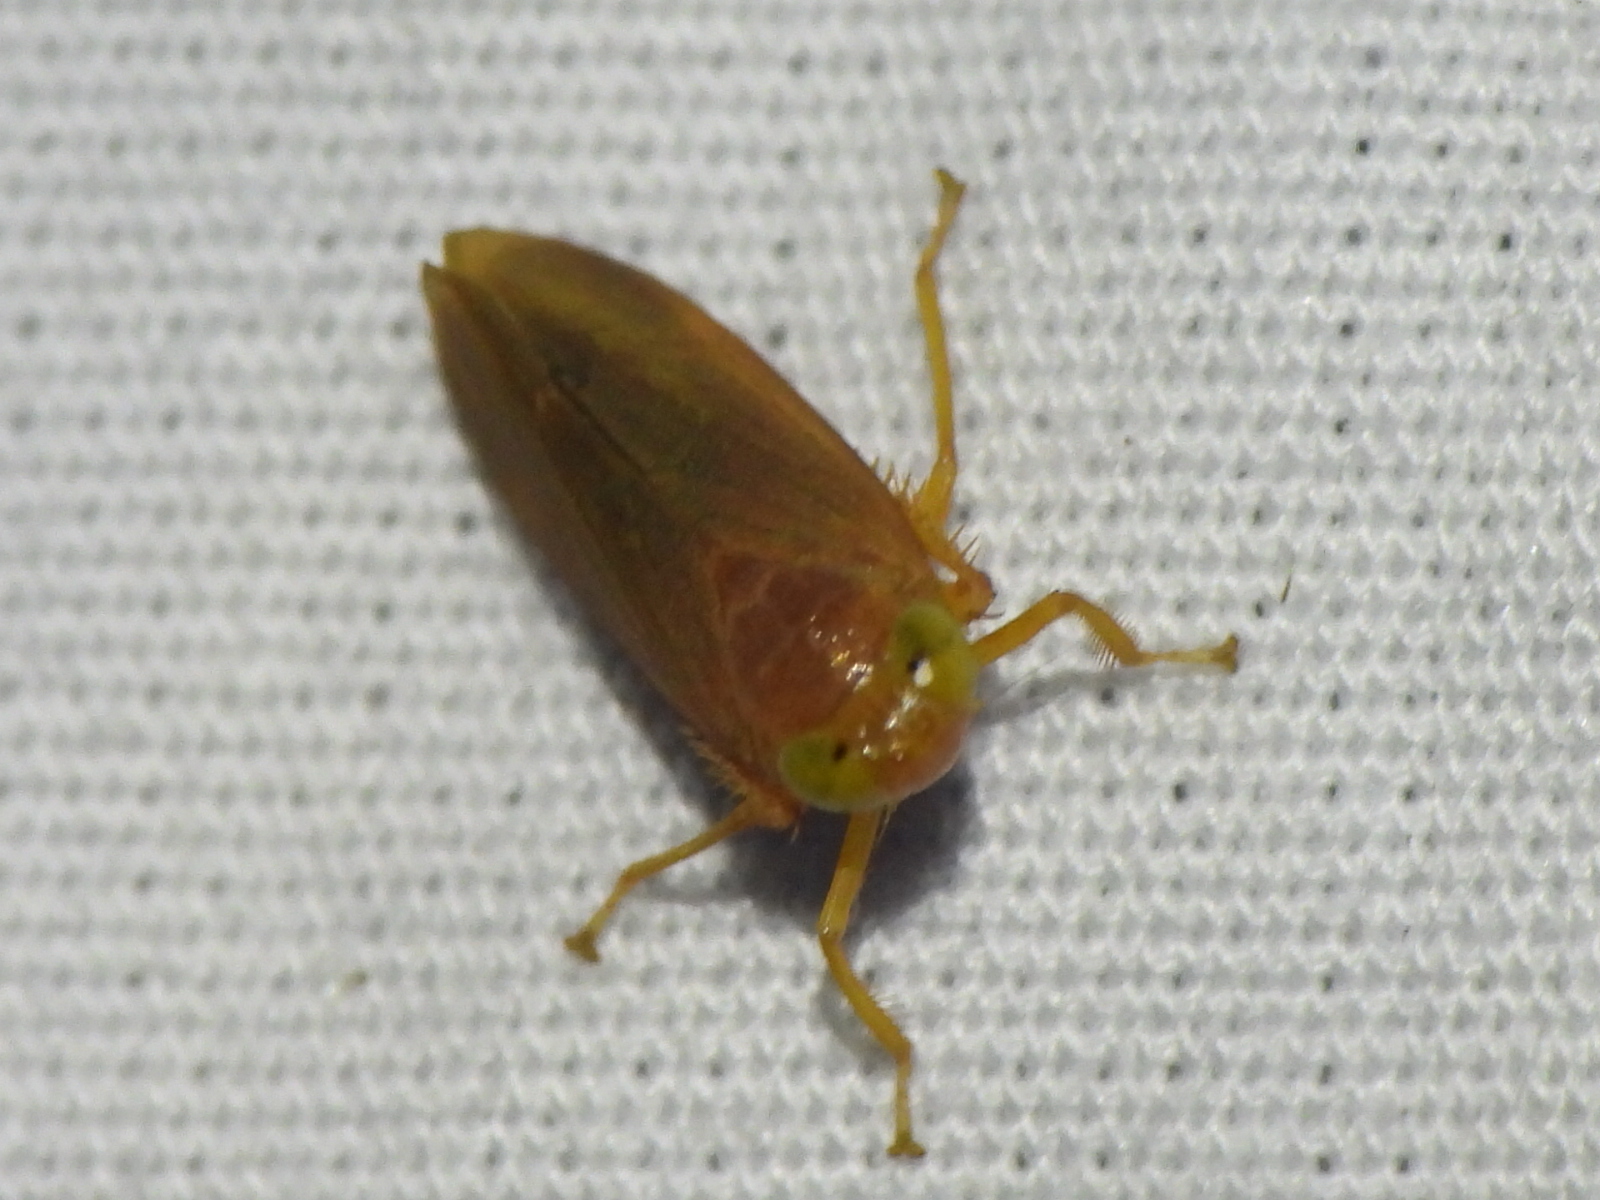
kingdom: Animalia
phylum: Arthropoda
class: Insecta
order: Hemiptera
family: Cicadellidae
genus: Jikradia
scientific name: Jikradia olitoria
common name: Coppery leafhopper
